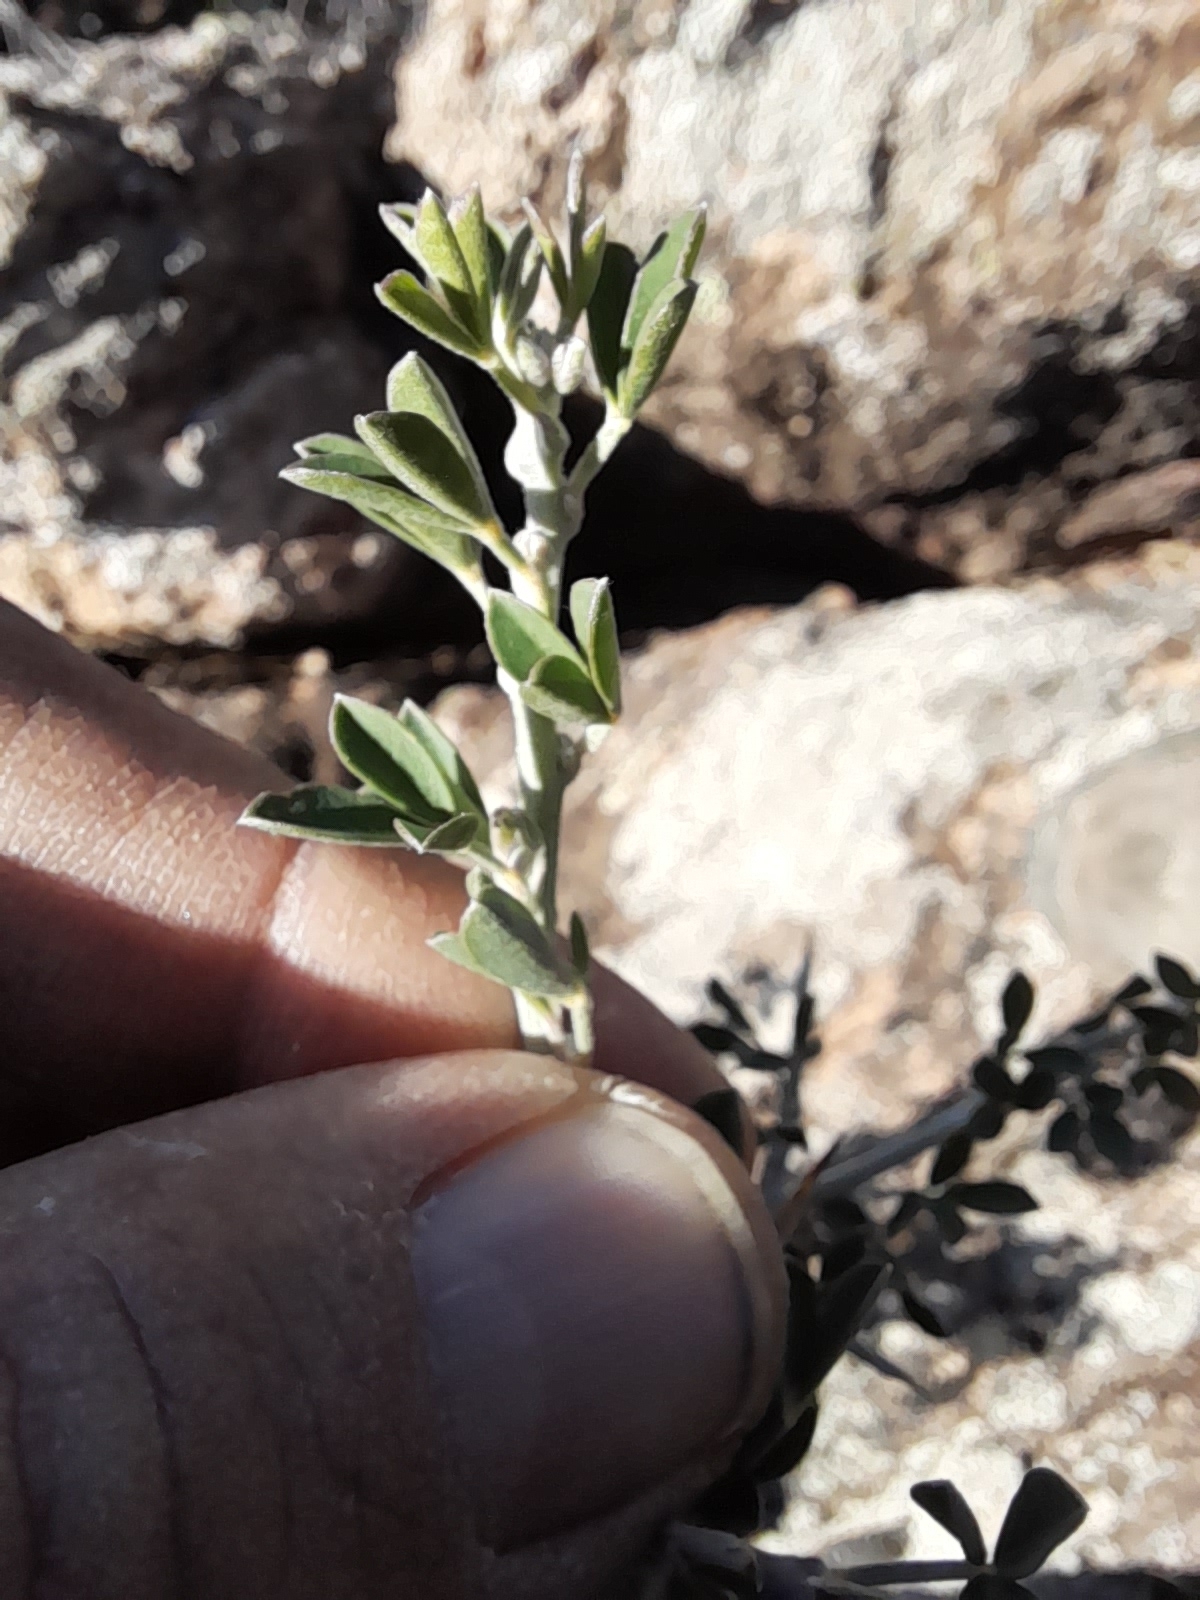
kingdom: Plantae
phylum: Tracheophyta
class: Magnoliopsida
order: Fabales
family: Fabaceae
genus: Calicotome
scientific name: Calicotome villosa
